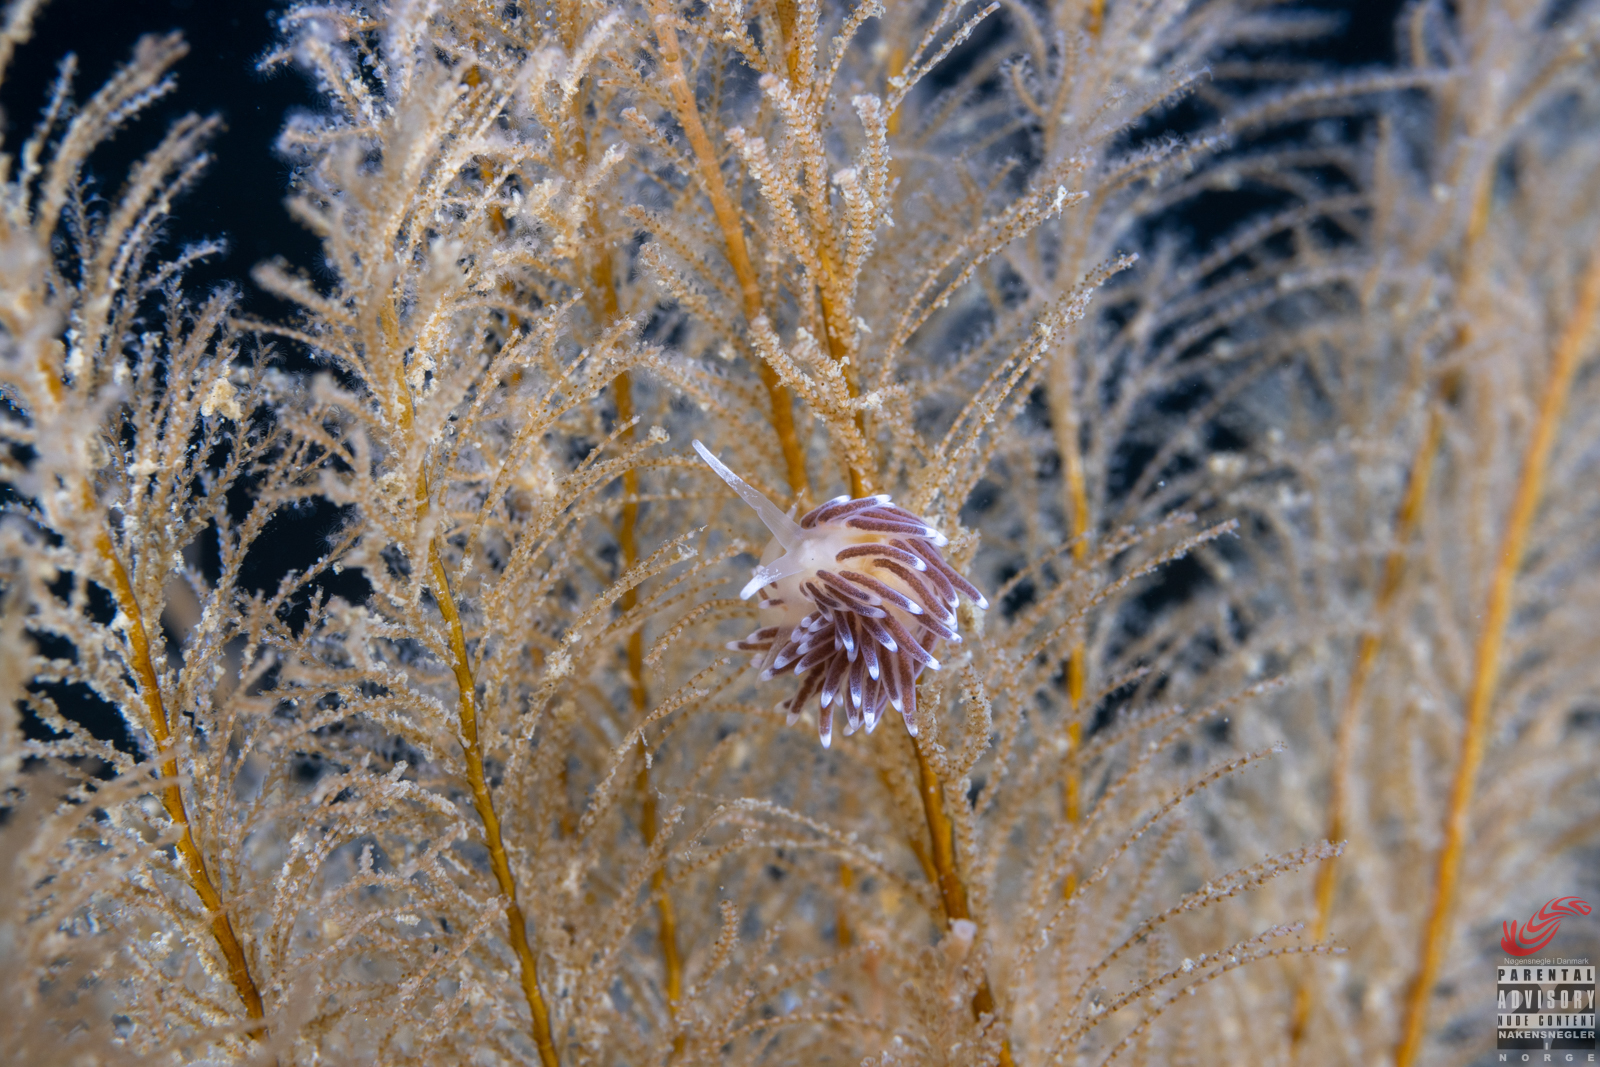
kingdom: Animalia
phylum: Mollusca
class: Gastropoda
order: Nudibranchia
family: Cuthonellidae
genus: Cuthonella
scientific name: Cuthonella concinna
